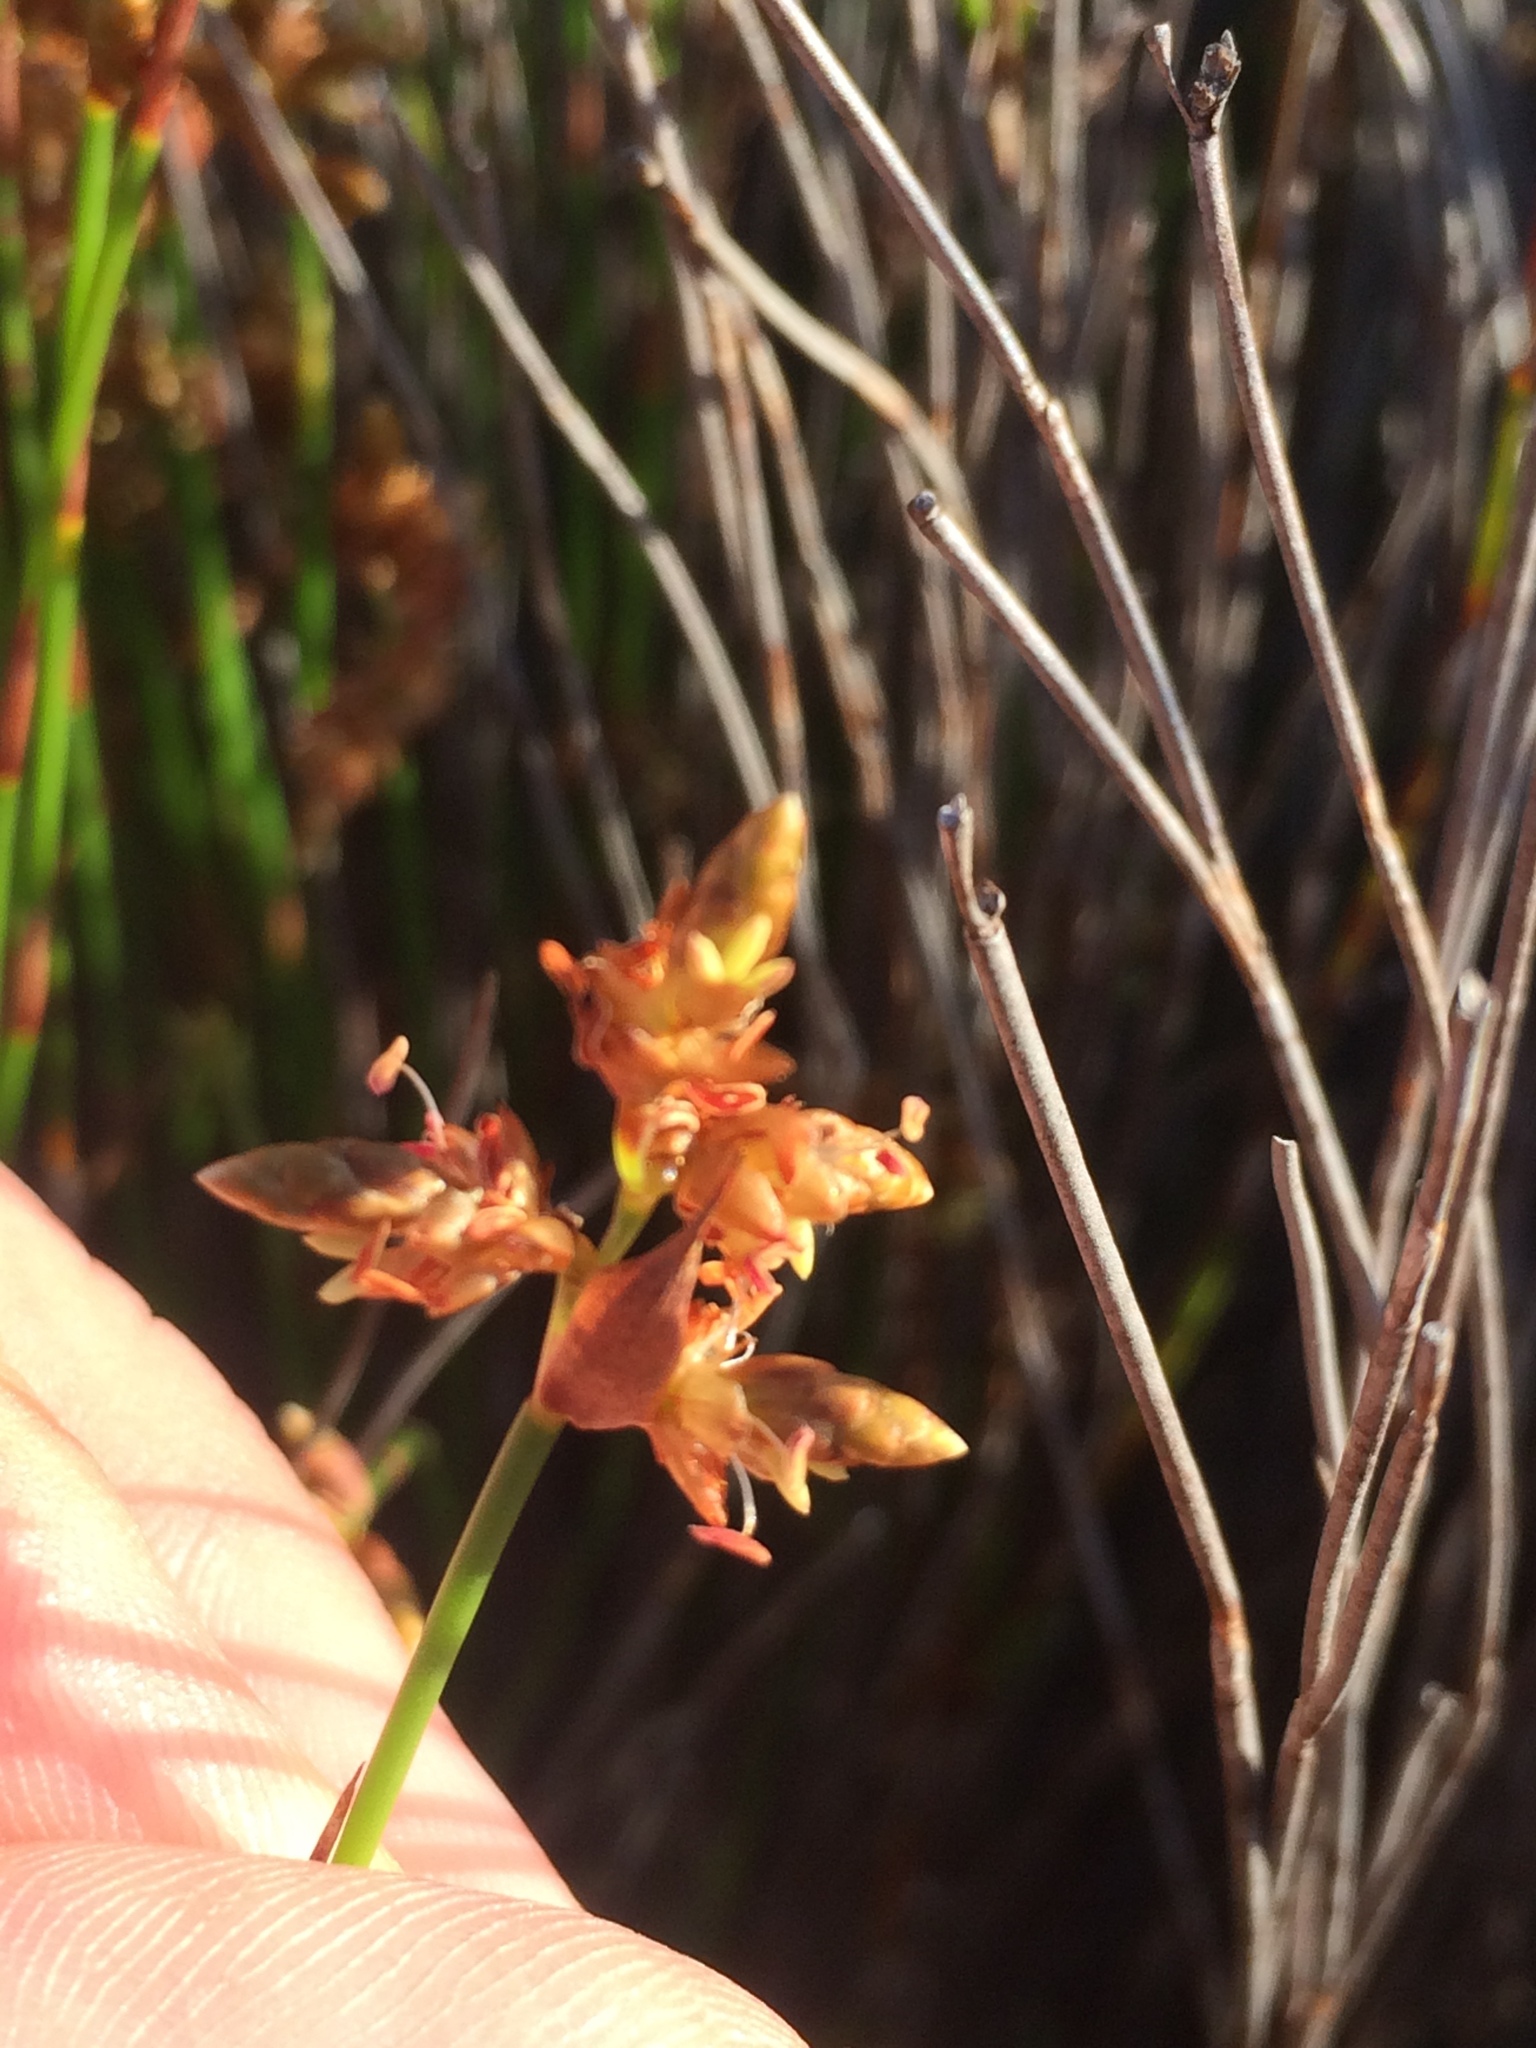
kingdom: Plantae
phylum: Tracheophyta
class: Liliopsida
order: Poales
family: Restionaceae
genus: Mastersiella
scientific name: Mastersiella digitata
